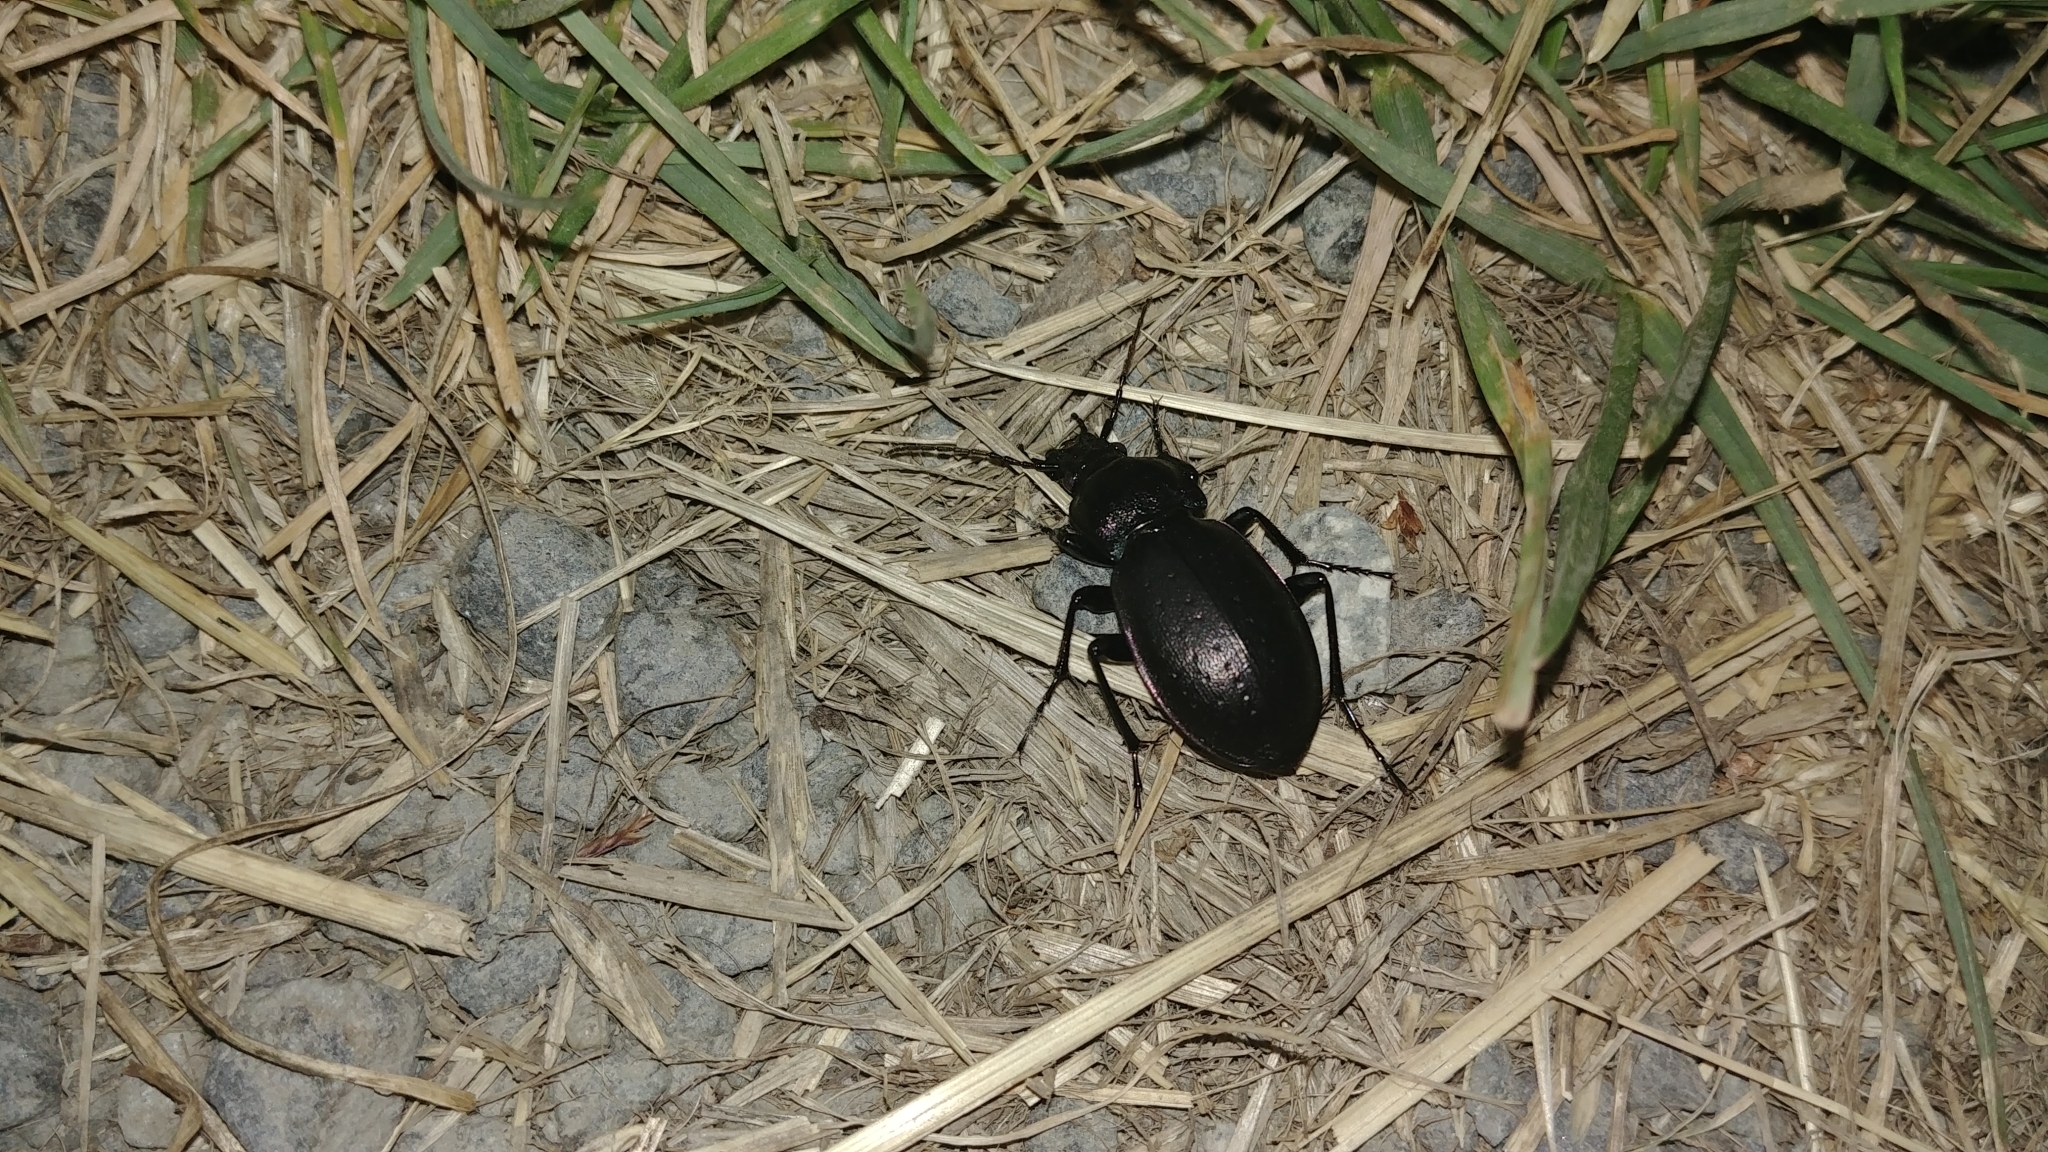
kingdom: Animalia
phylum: Arthropoda
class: Insecta
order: Coleoptera
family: Carabidae
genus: Carabus
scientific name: Carabus nemoralis
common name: European ground beetle
